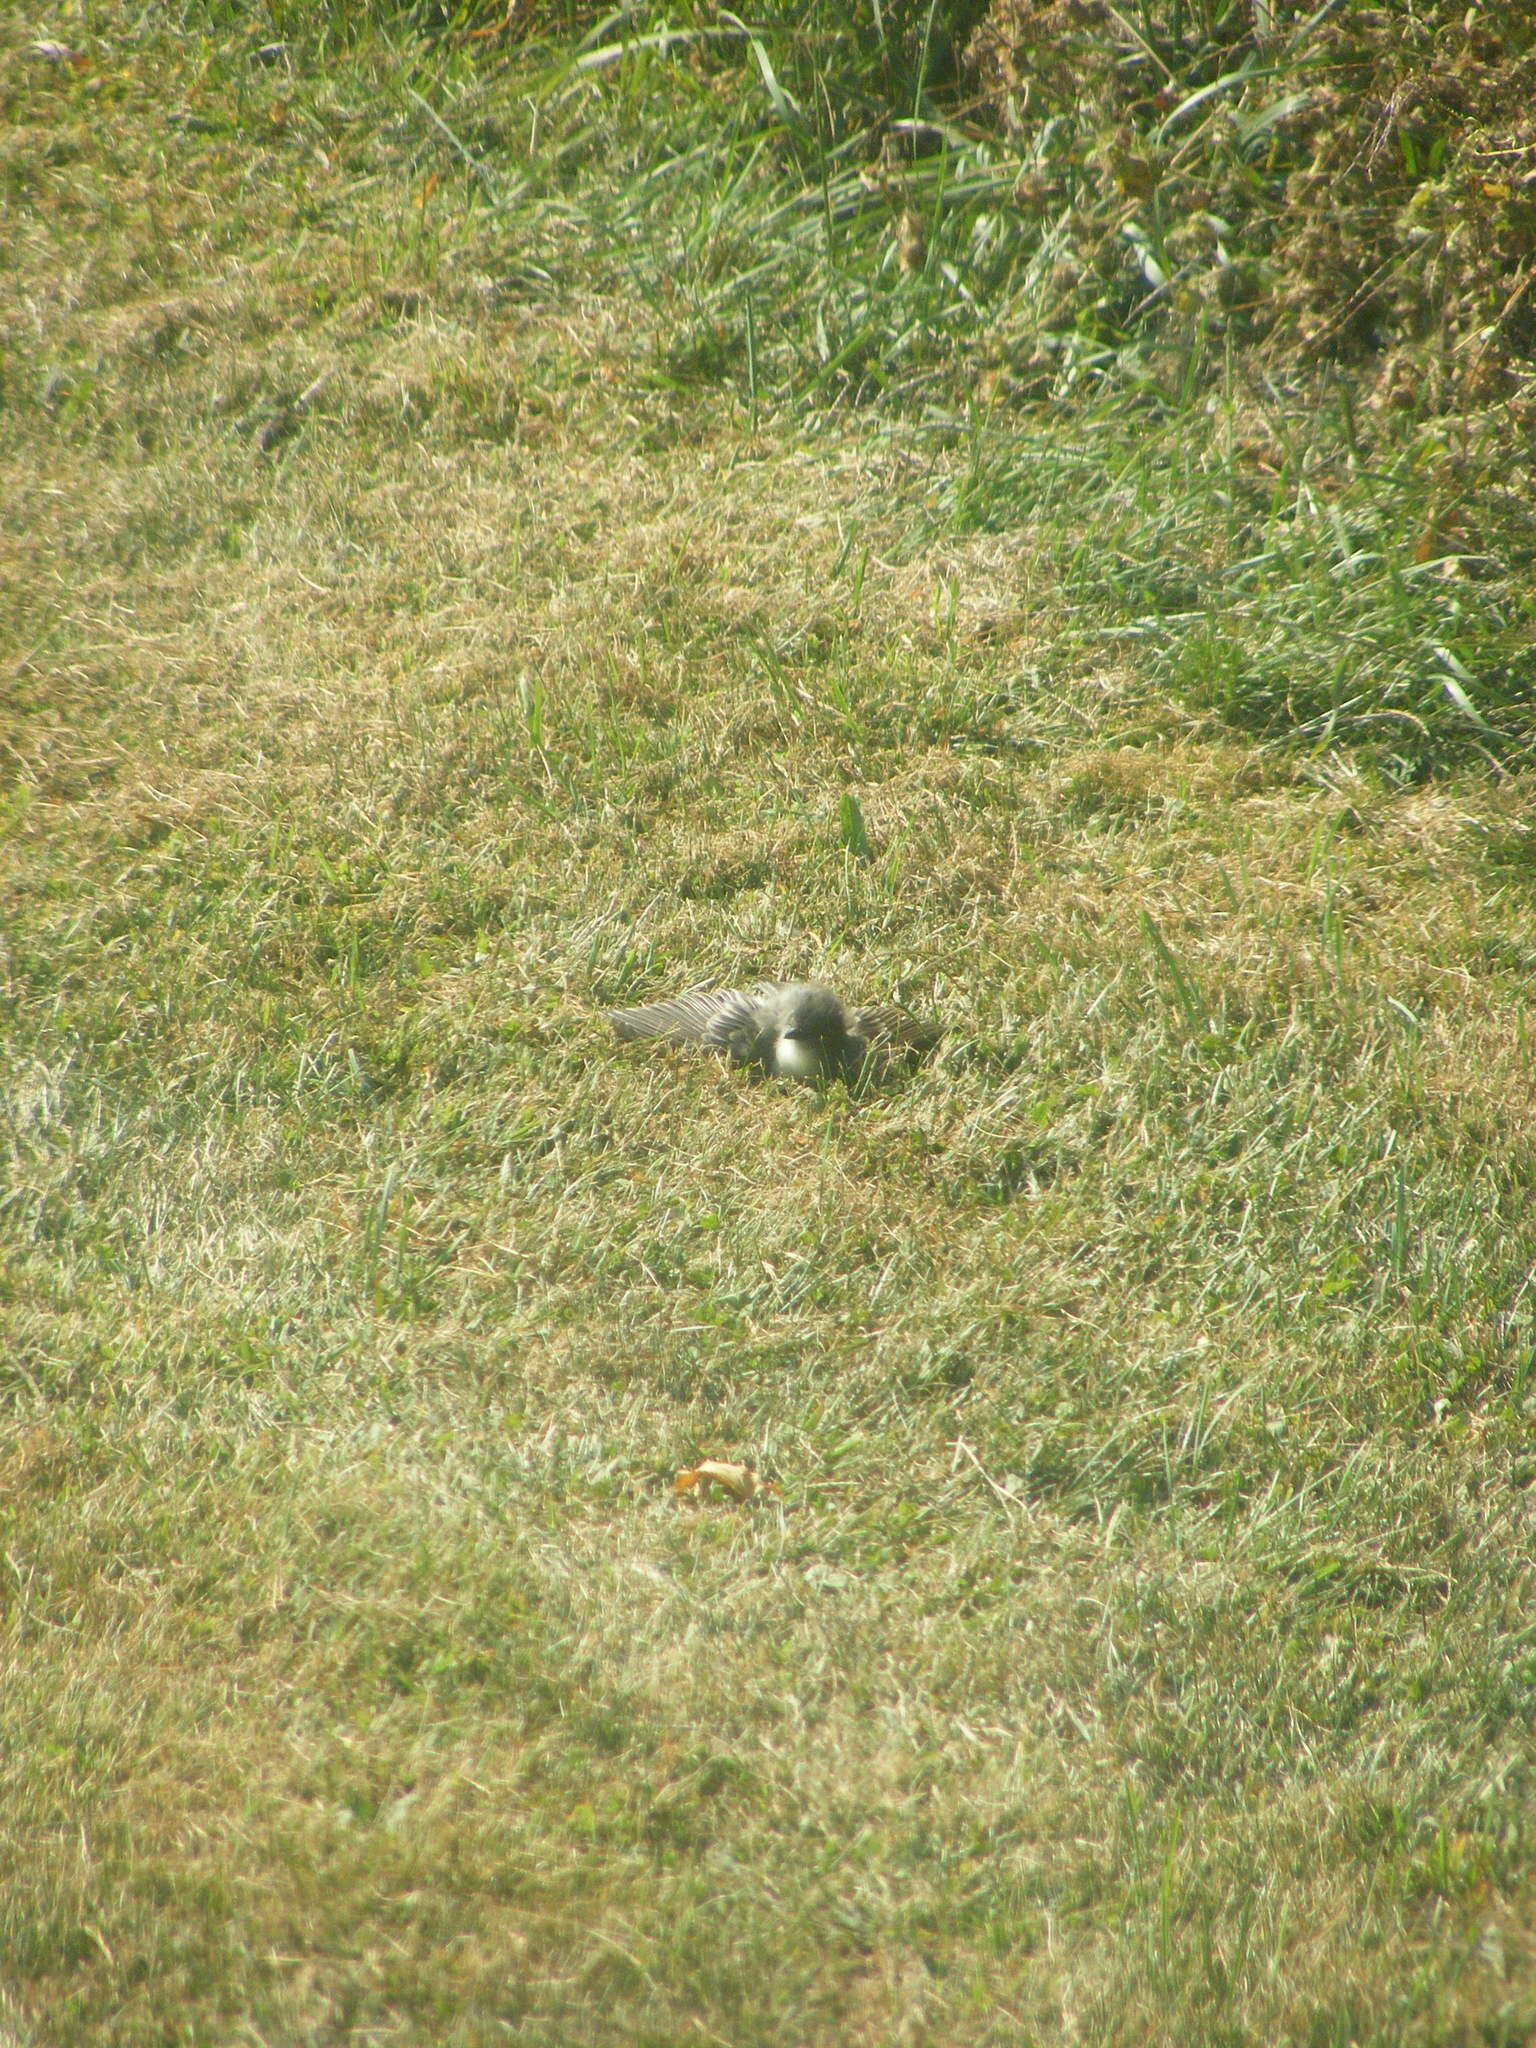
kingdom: Animalia
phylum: Chordata
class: Aves
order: Passeriformes
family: Tyrannidae
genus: Sayornis
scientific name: Sayornis phoebe
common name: Eastern phoebe
